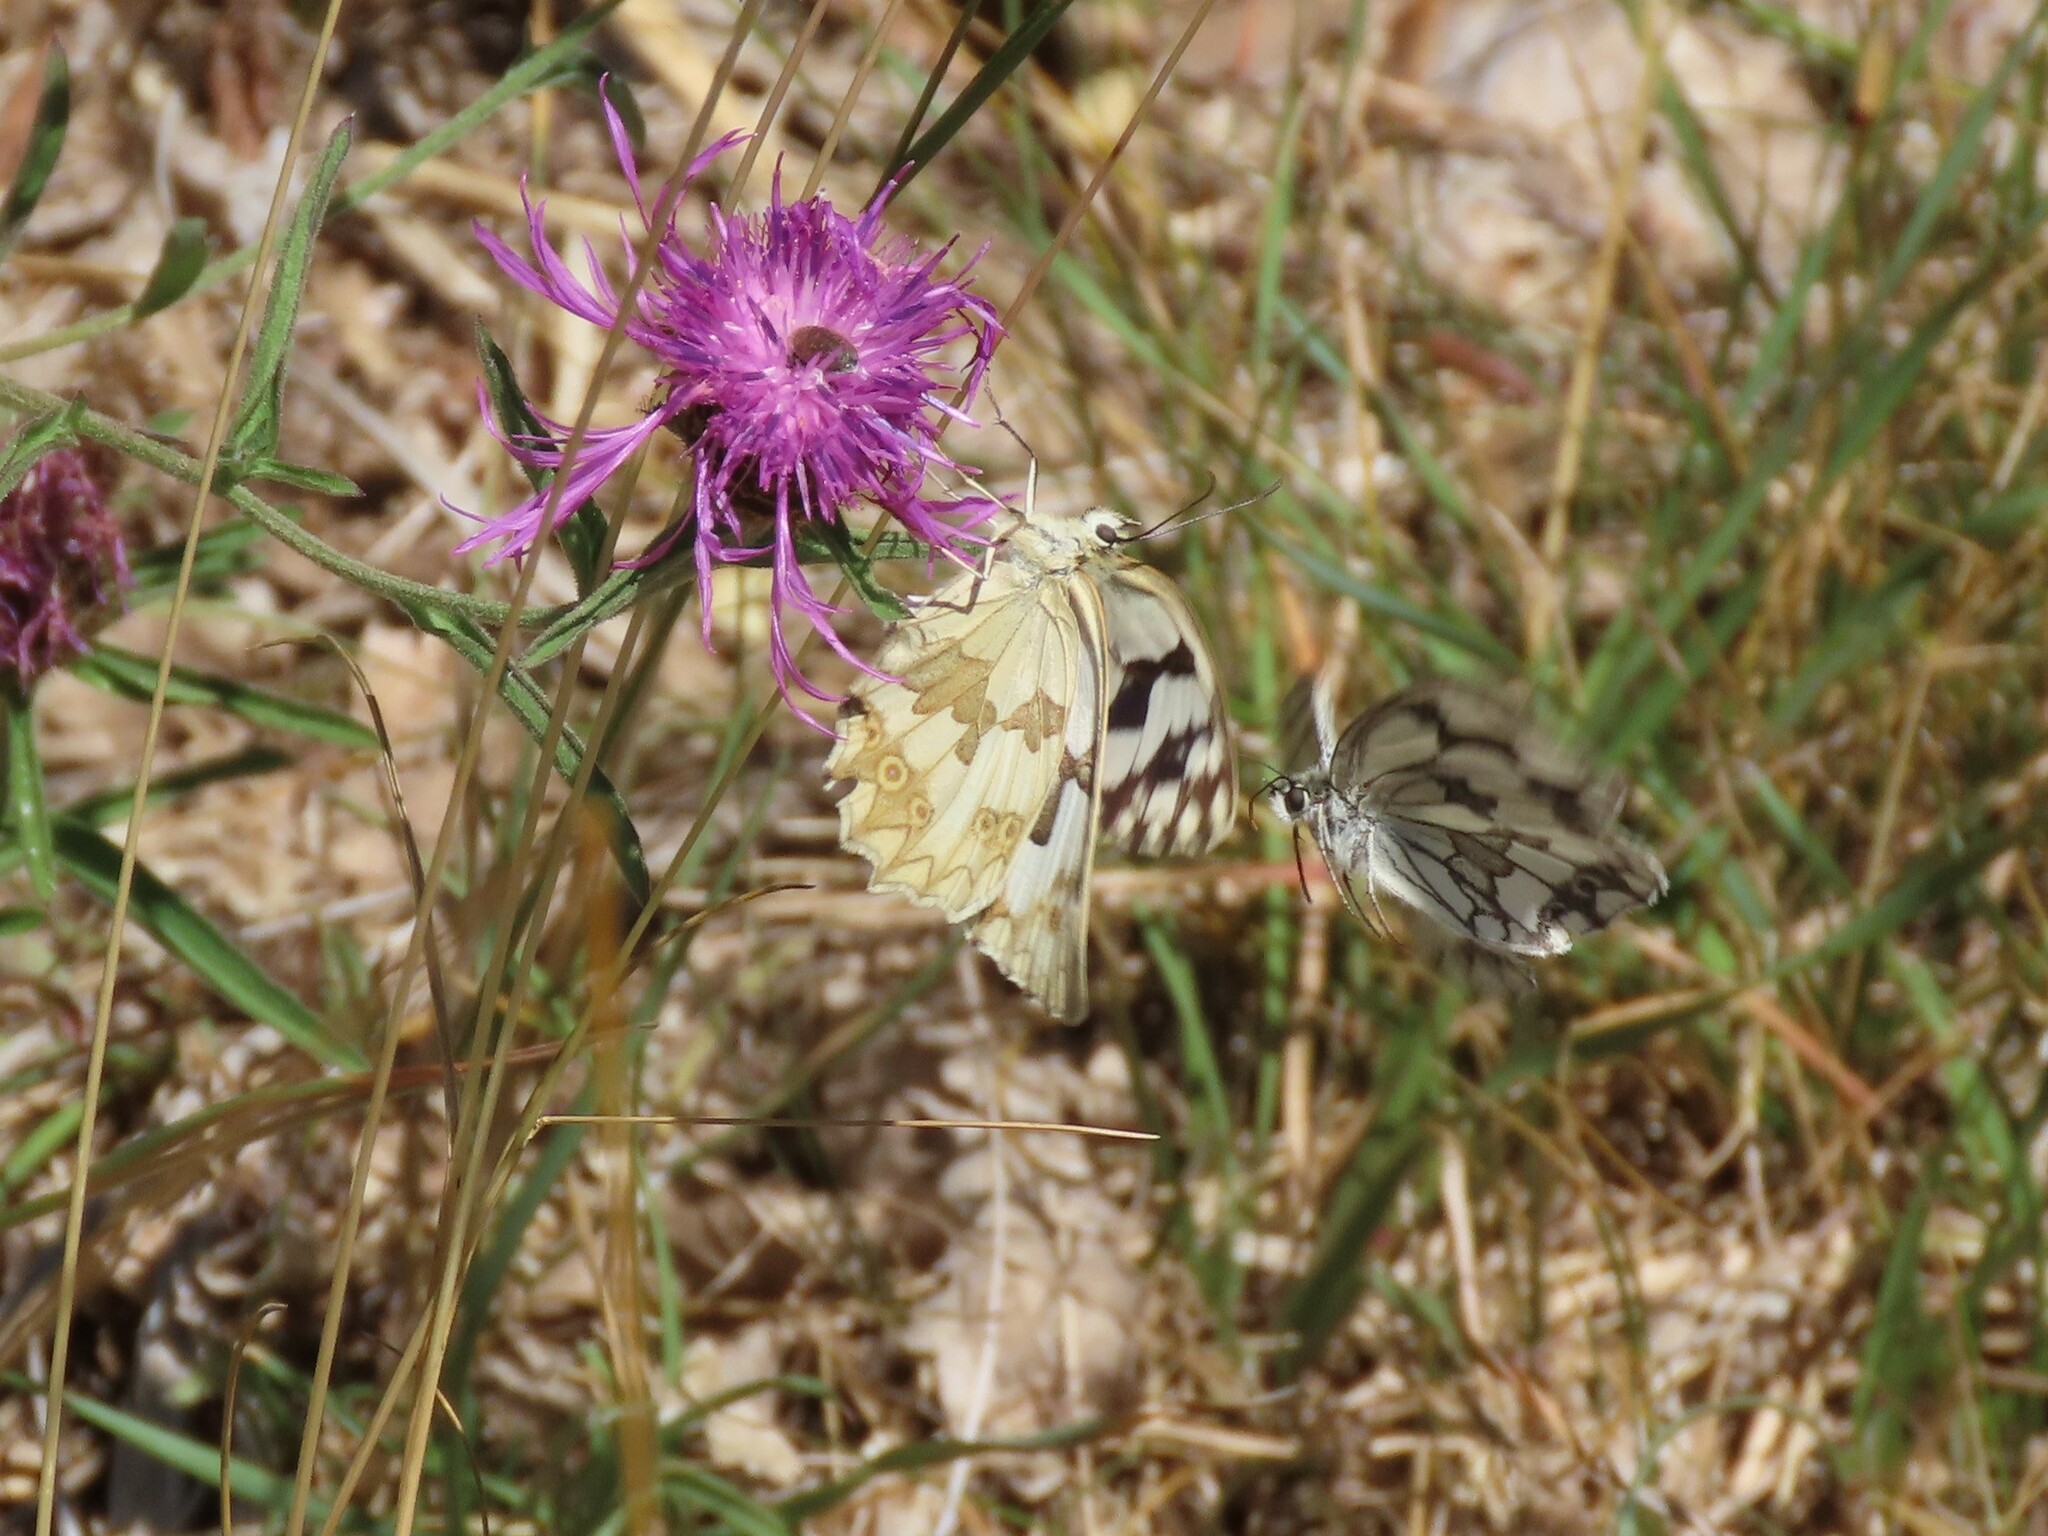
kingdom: Animalia
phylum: Arthropoda
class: Insecta
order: Lepidoptera
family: Nymphalidae
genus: Melanargia
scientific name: Melanargia lachesis
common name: Iberian marbled white
